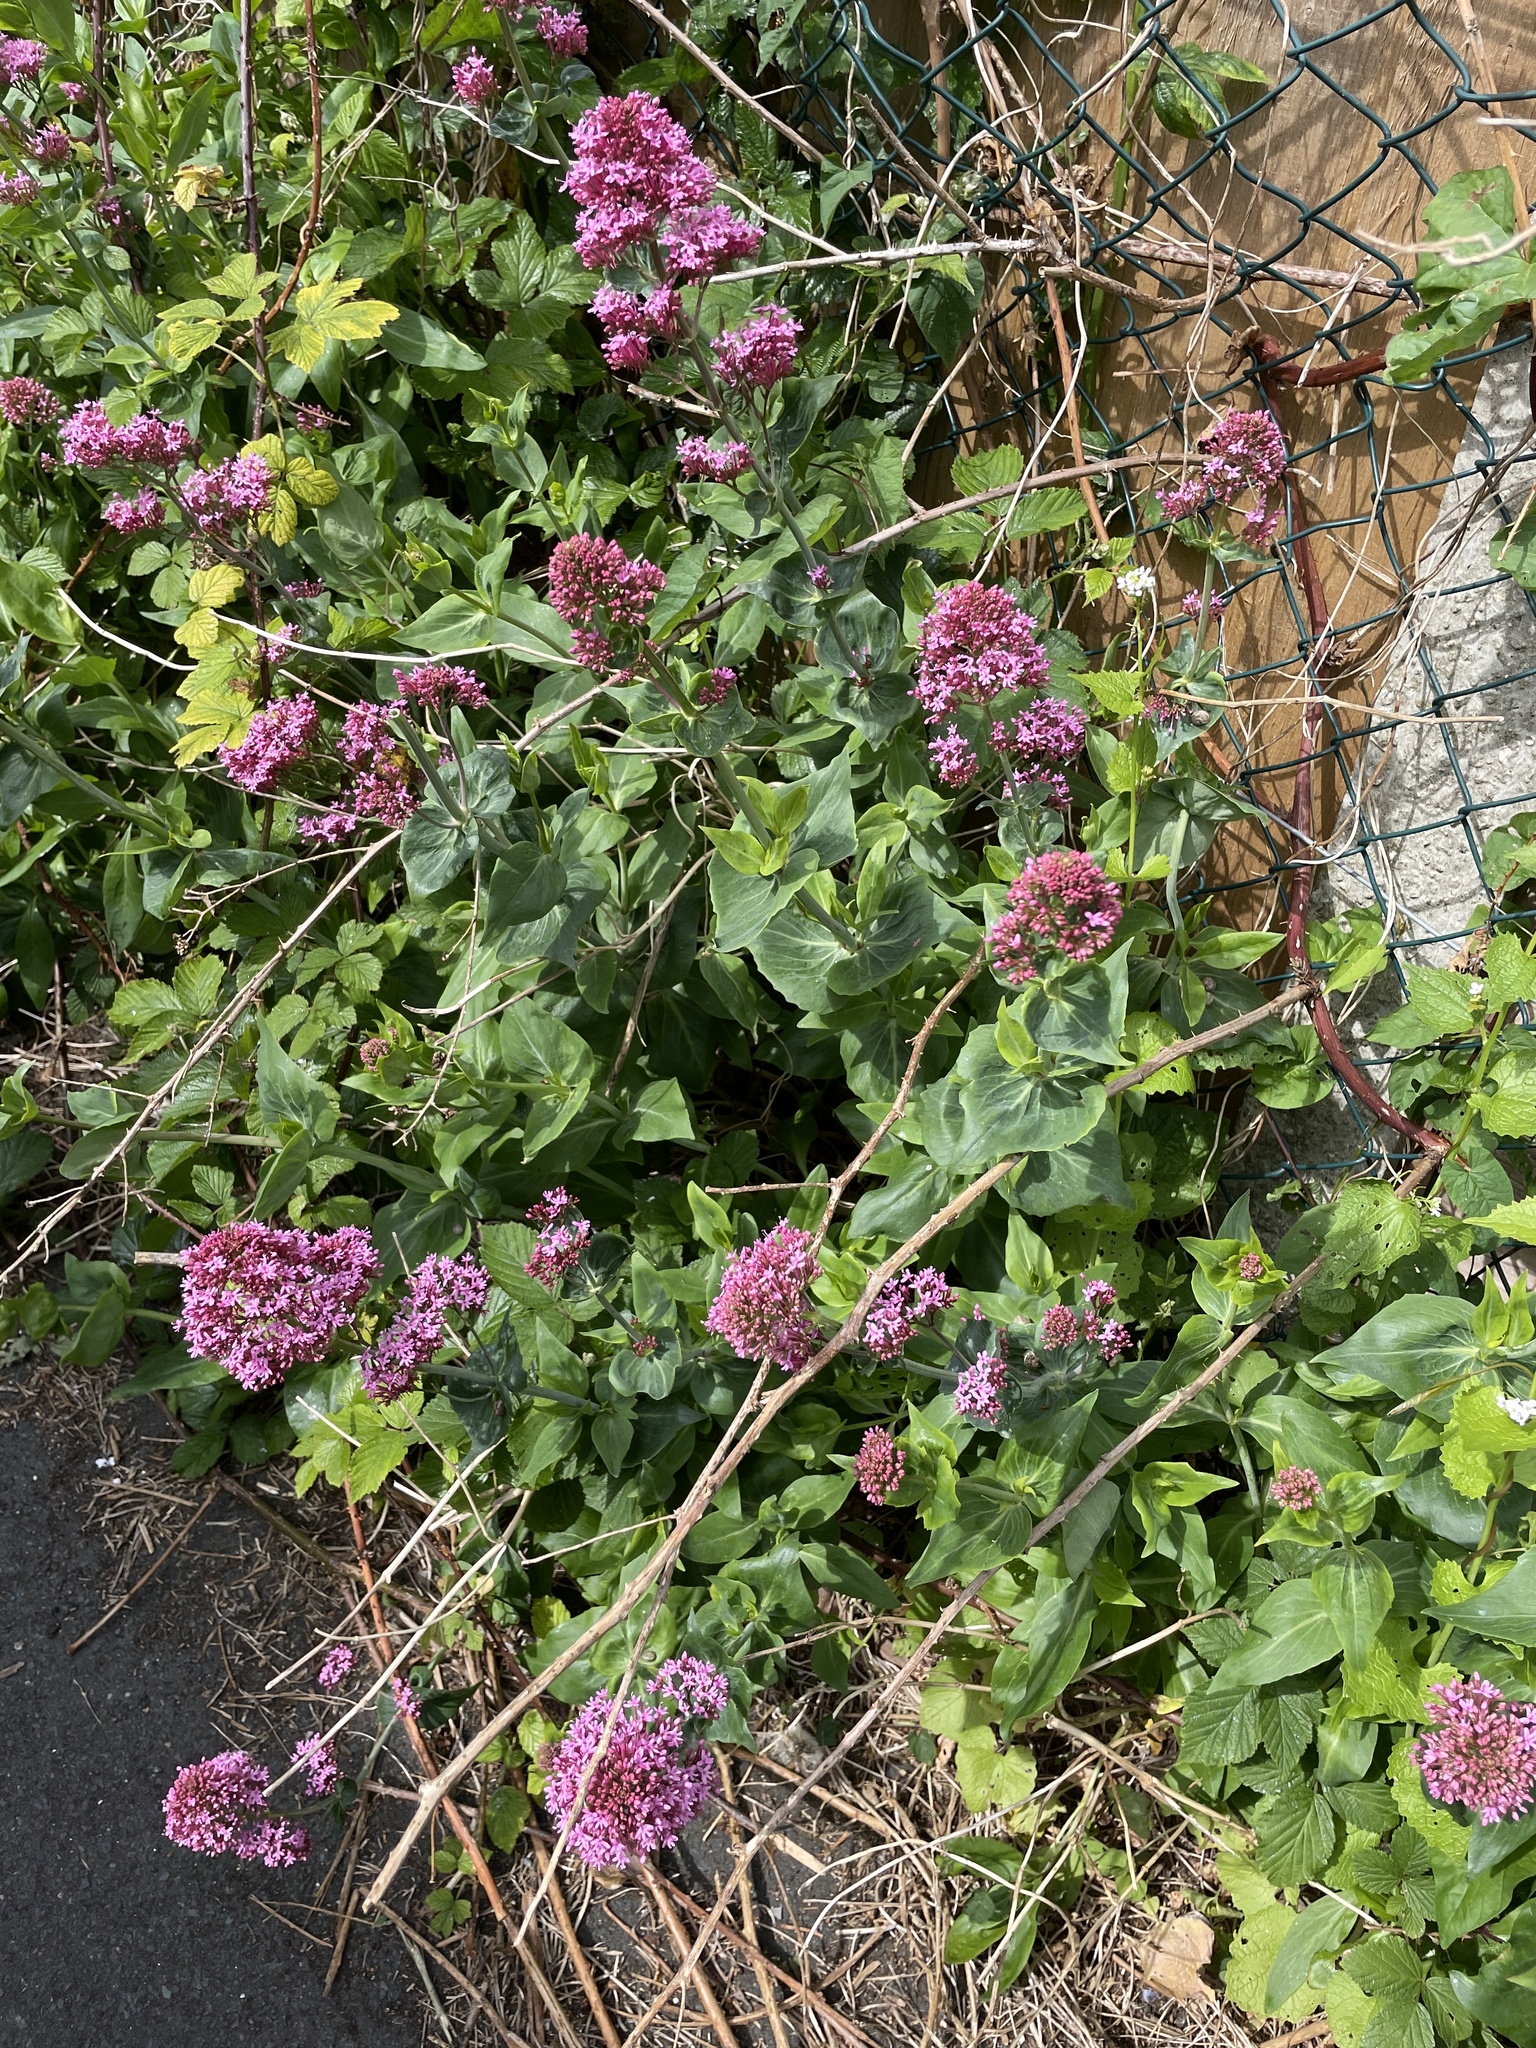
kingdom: Plantae
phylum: Tracheophyta
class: Magnoliopsida
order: Dipsacales
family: Caprifoliaceae
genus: Centranthus
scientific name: Centranthus ruber
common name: Red valerian
